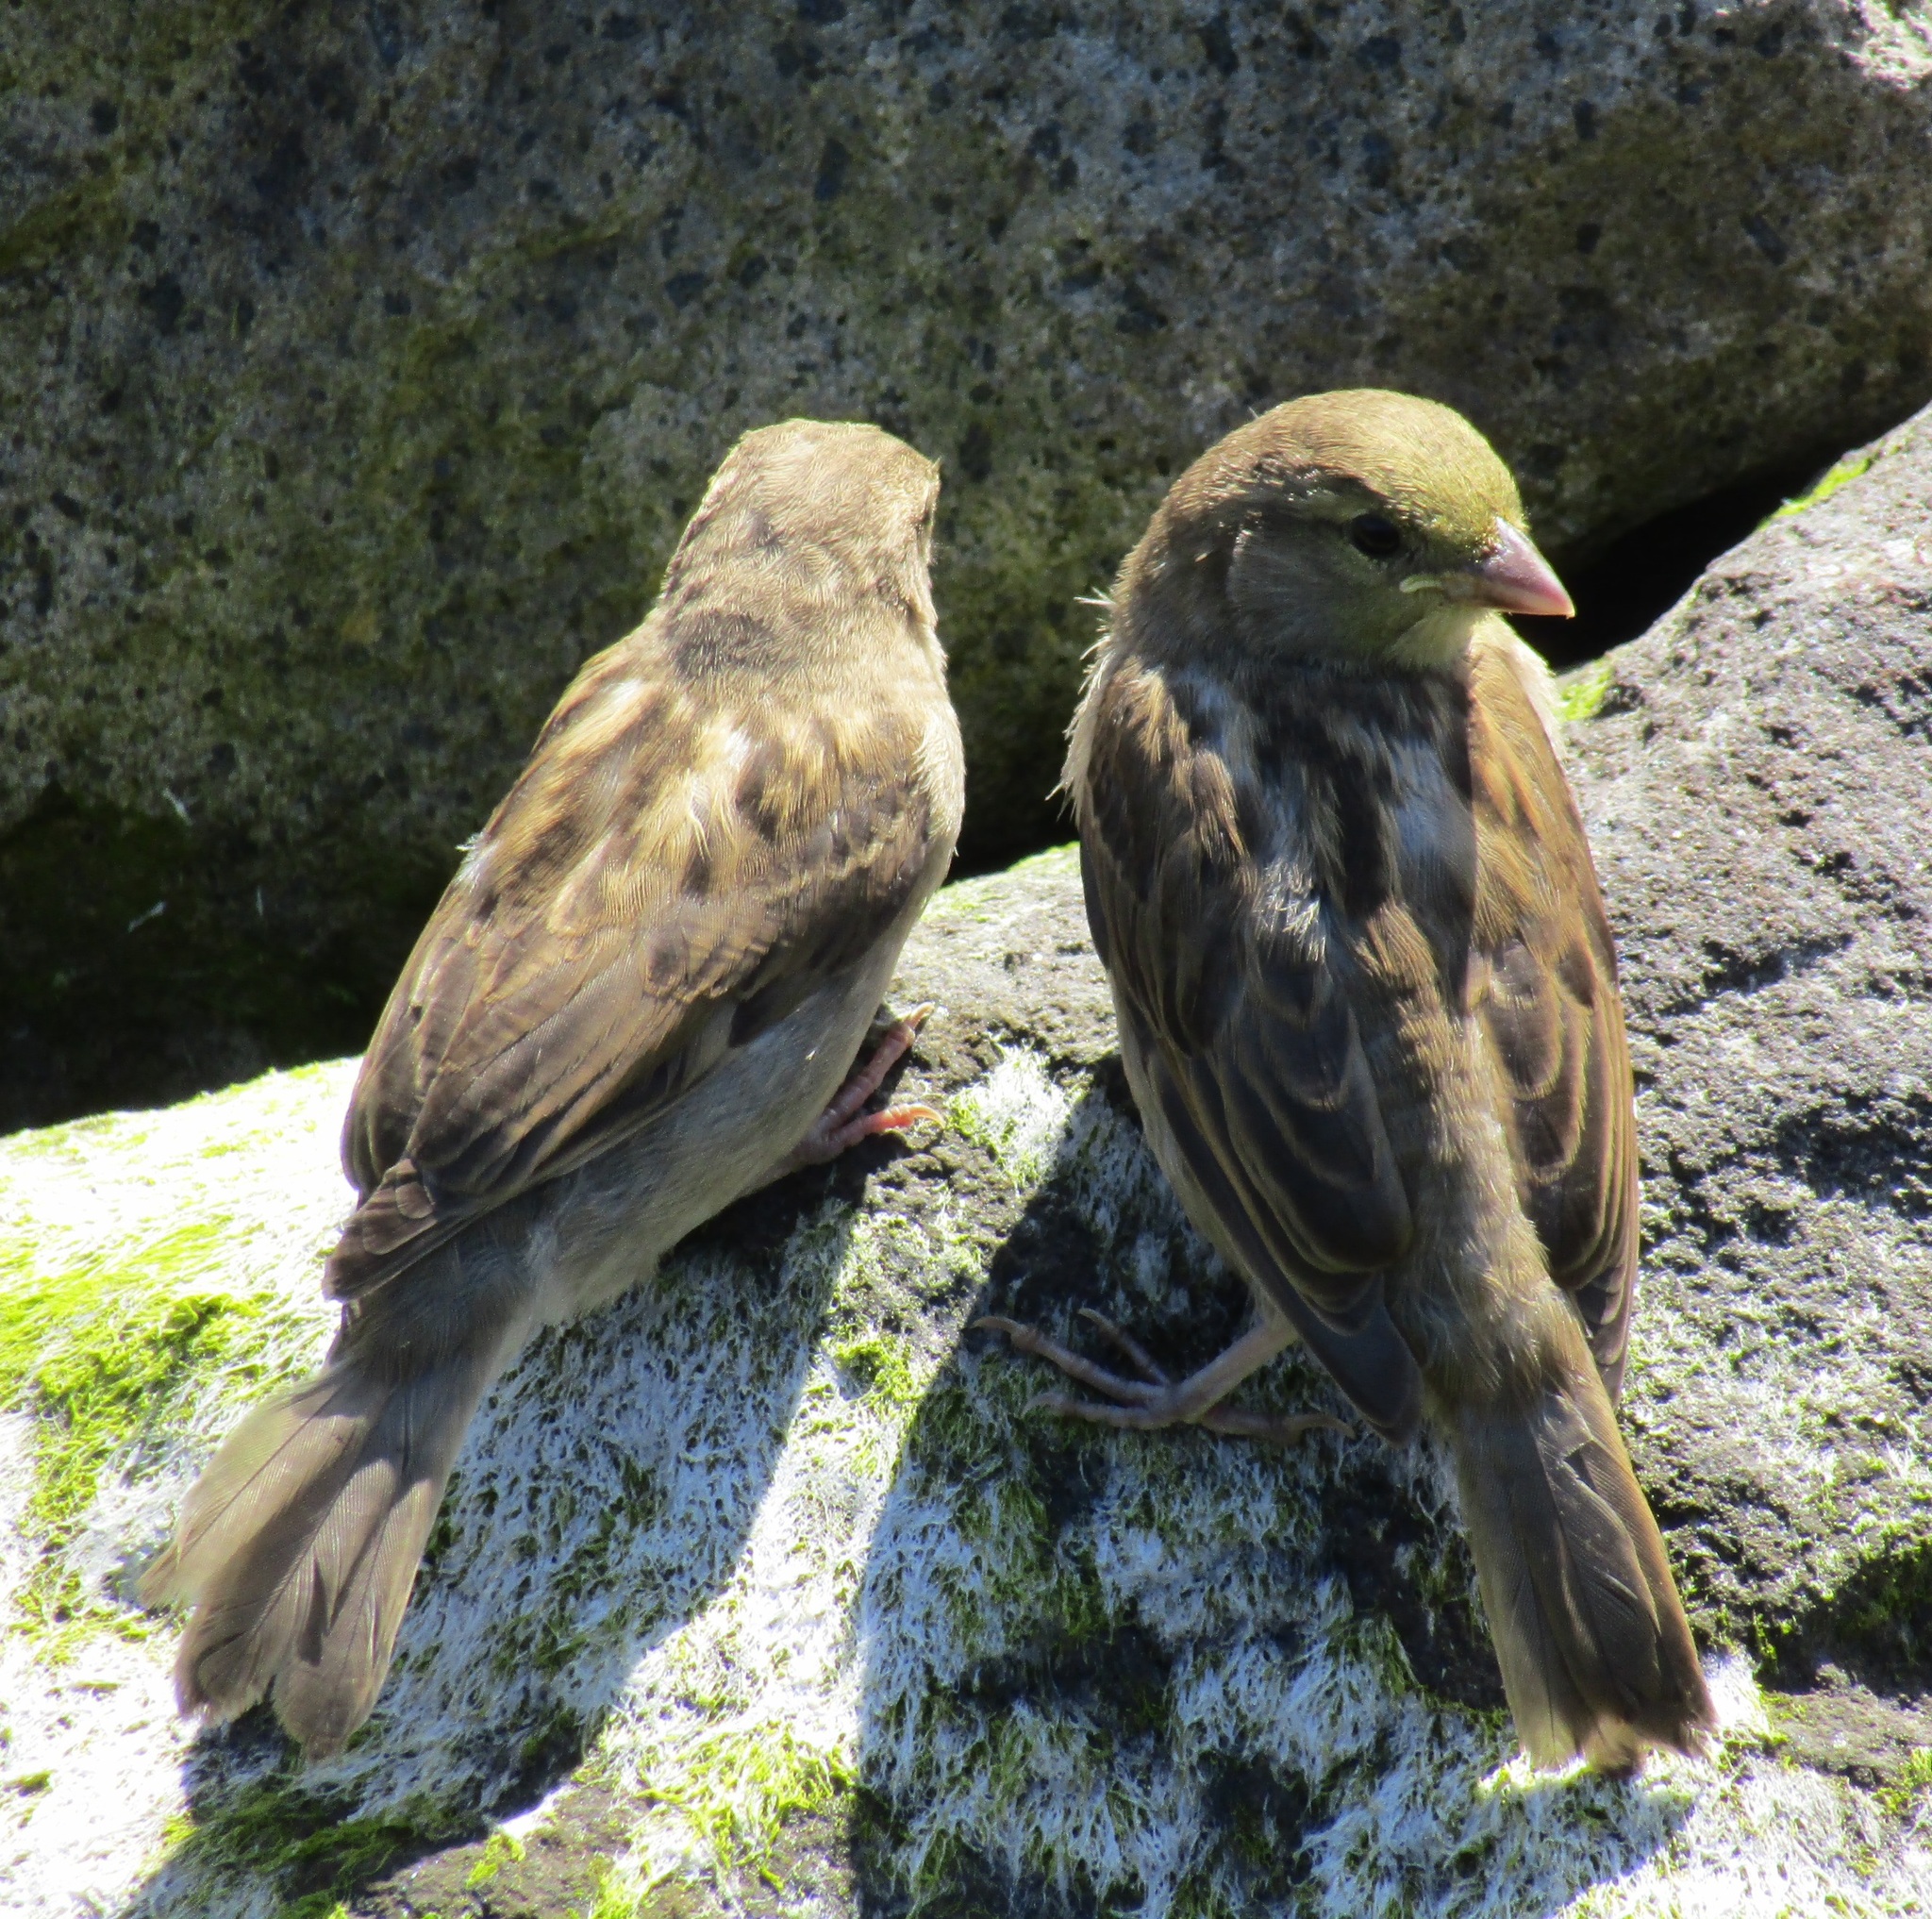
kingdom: Animalia
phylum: Chordata
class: Aves
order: Passeriformes
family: Passeridae
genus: Passer
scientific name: Passer domesticus
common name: House sparrow
